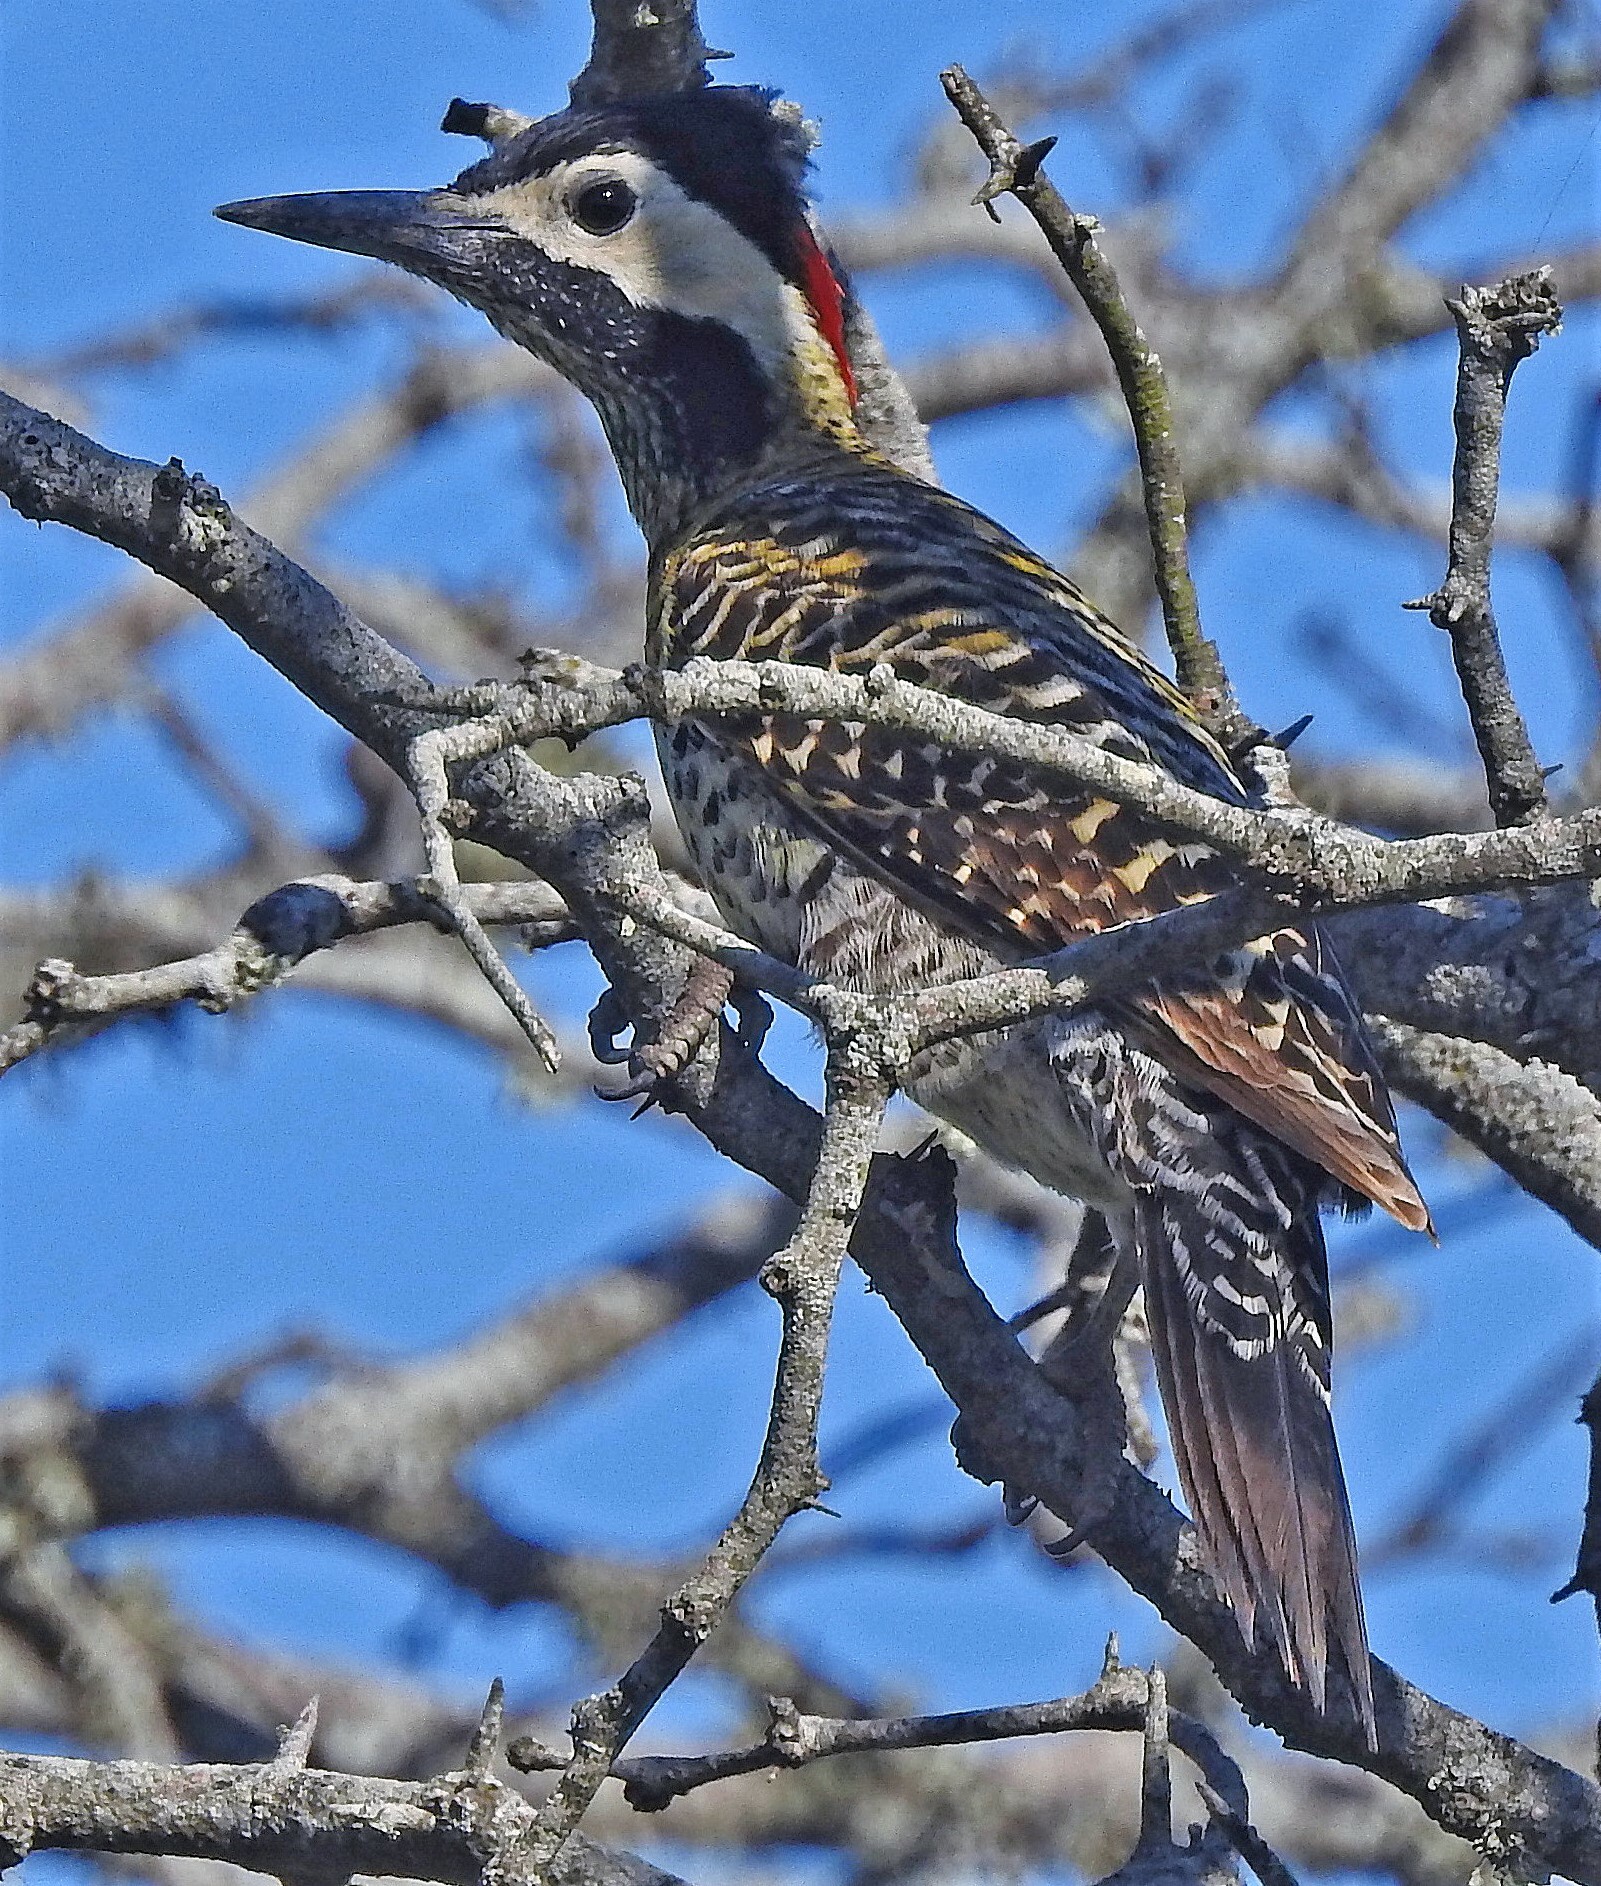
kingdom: Animalia
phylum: Chordata
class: Aves
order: Piciformes
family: Picidae
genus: Colaptes
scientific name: Colaptes melanochloros
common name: Green-barred woodpecker
